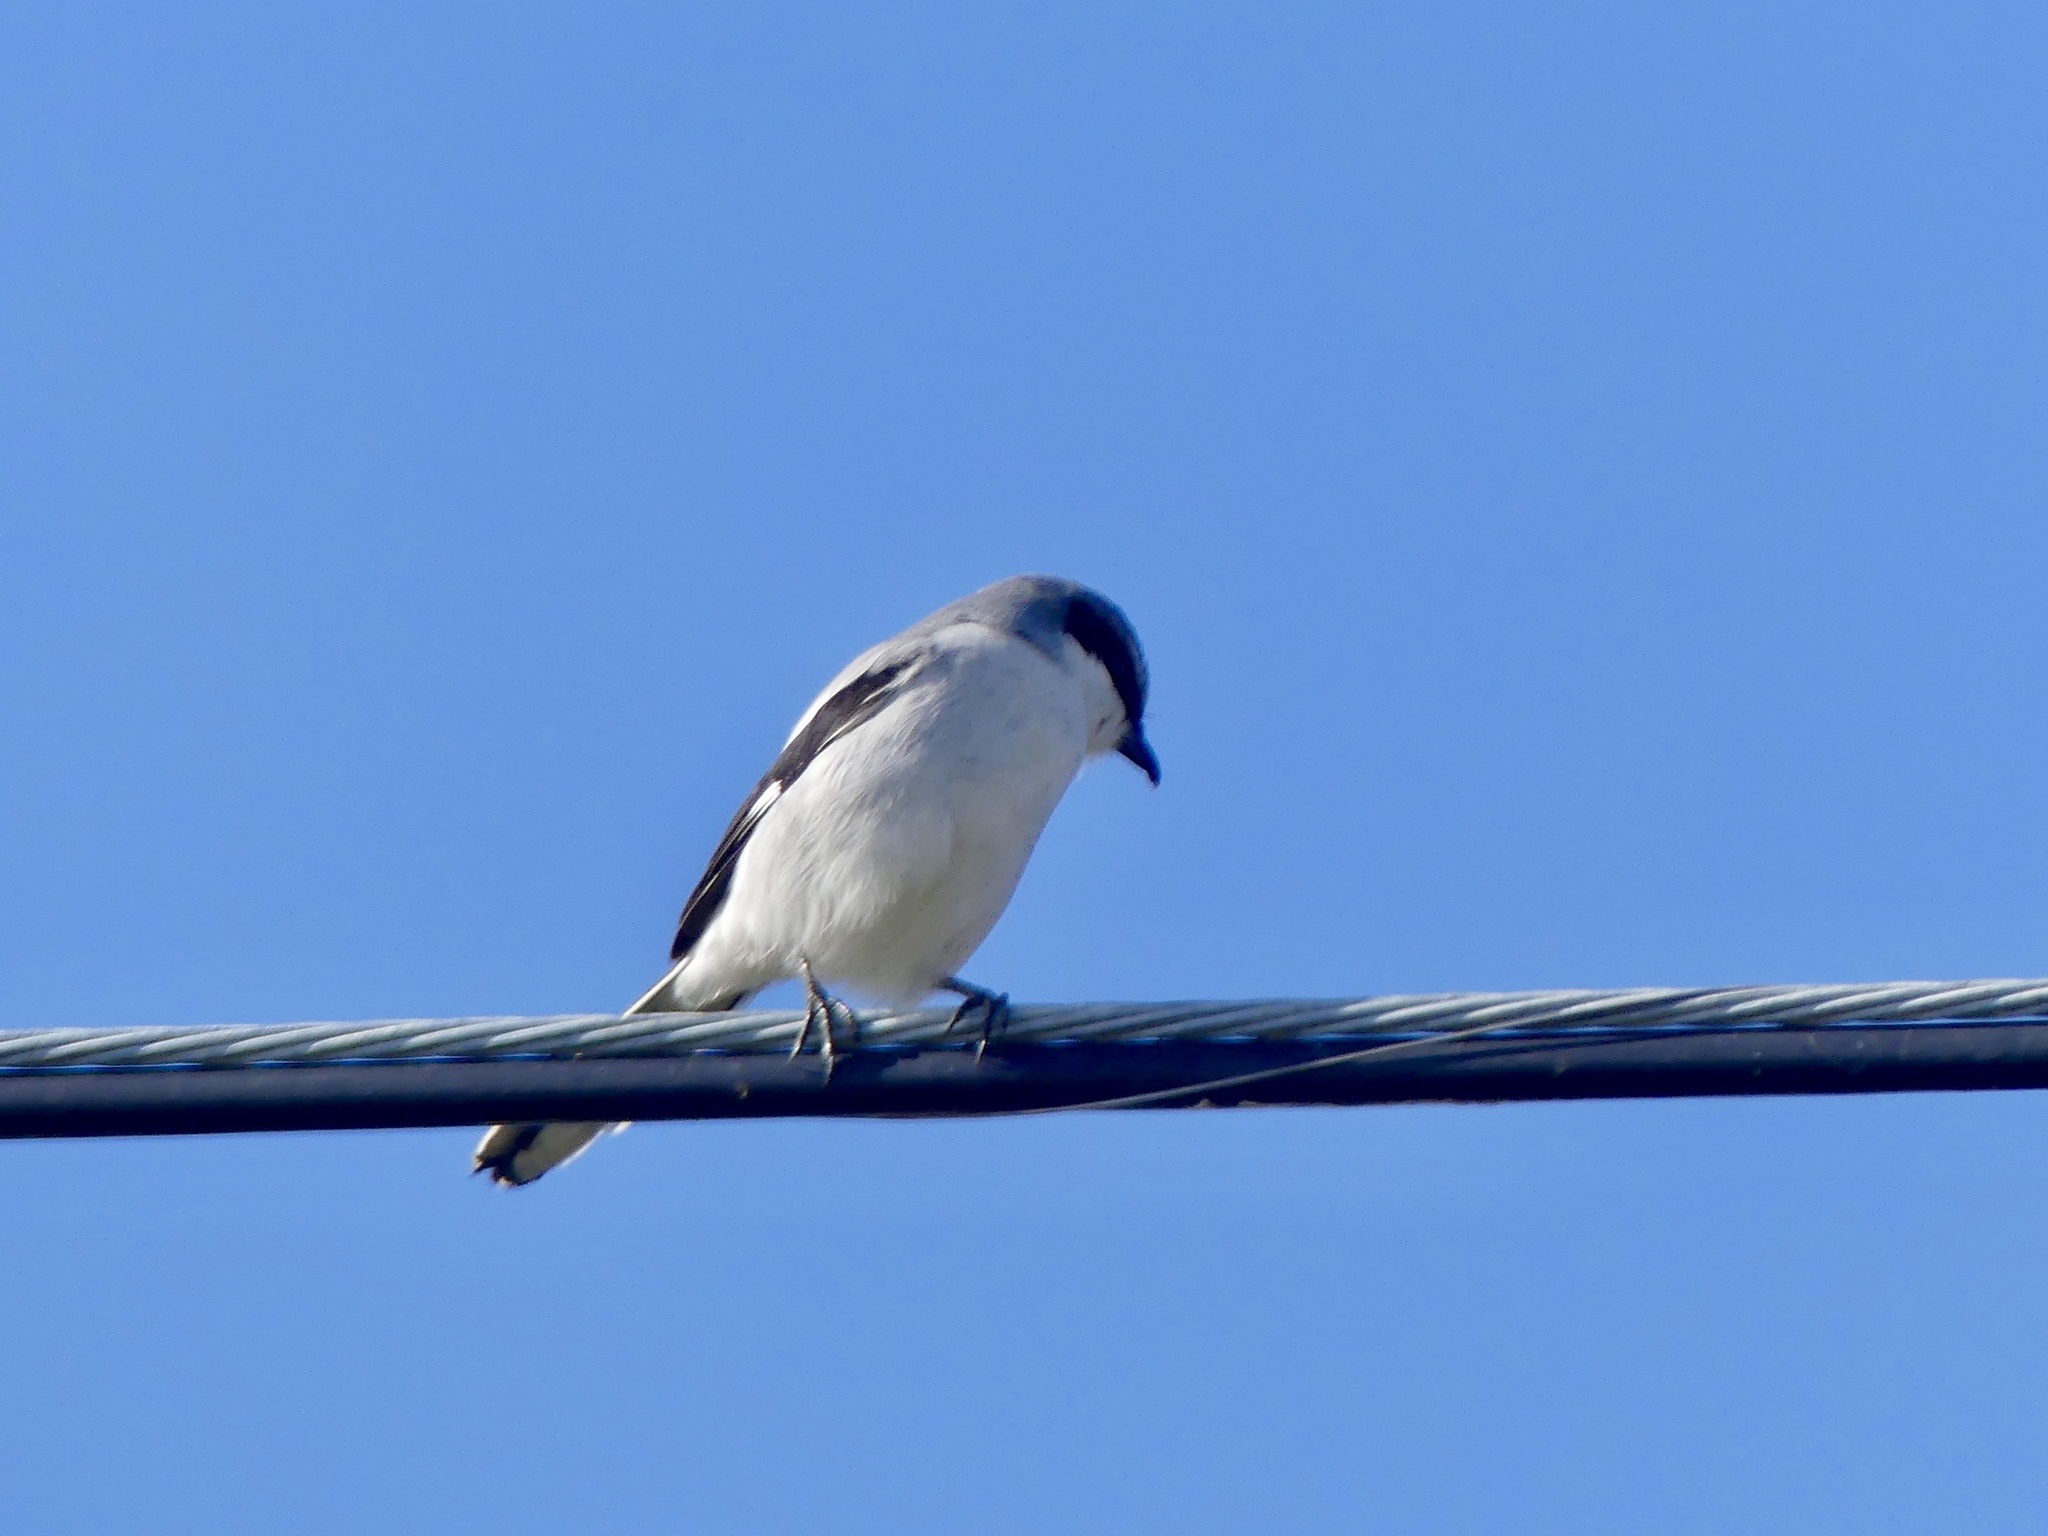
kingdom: Animalia
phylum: Chordata
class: Aves
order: Passeriformes
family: Laniidae
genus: Lanius
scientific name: Lanius ludovicianus
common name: Loggerhead shrike
